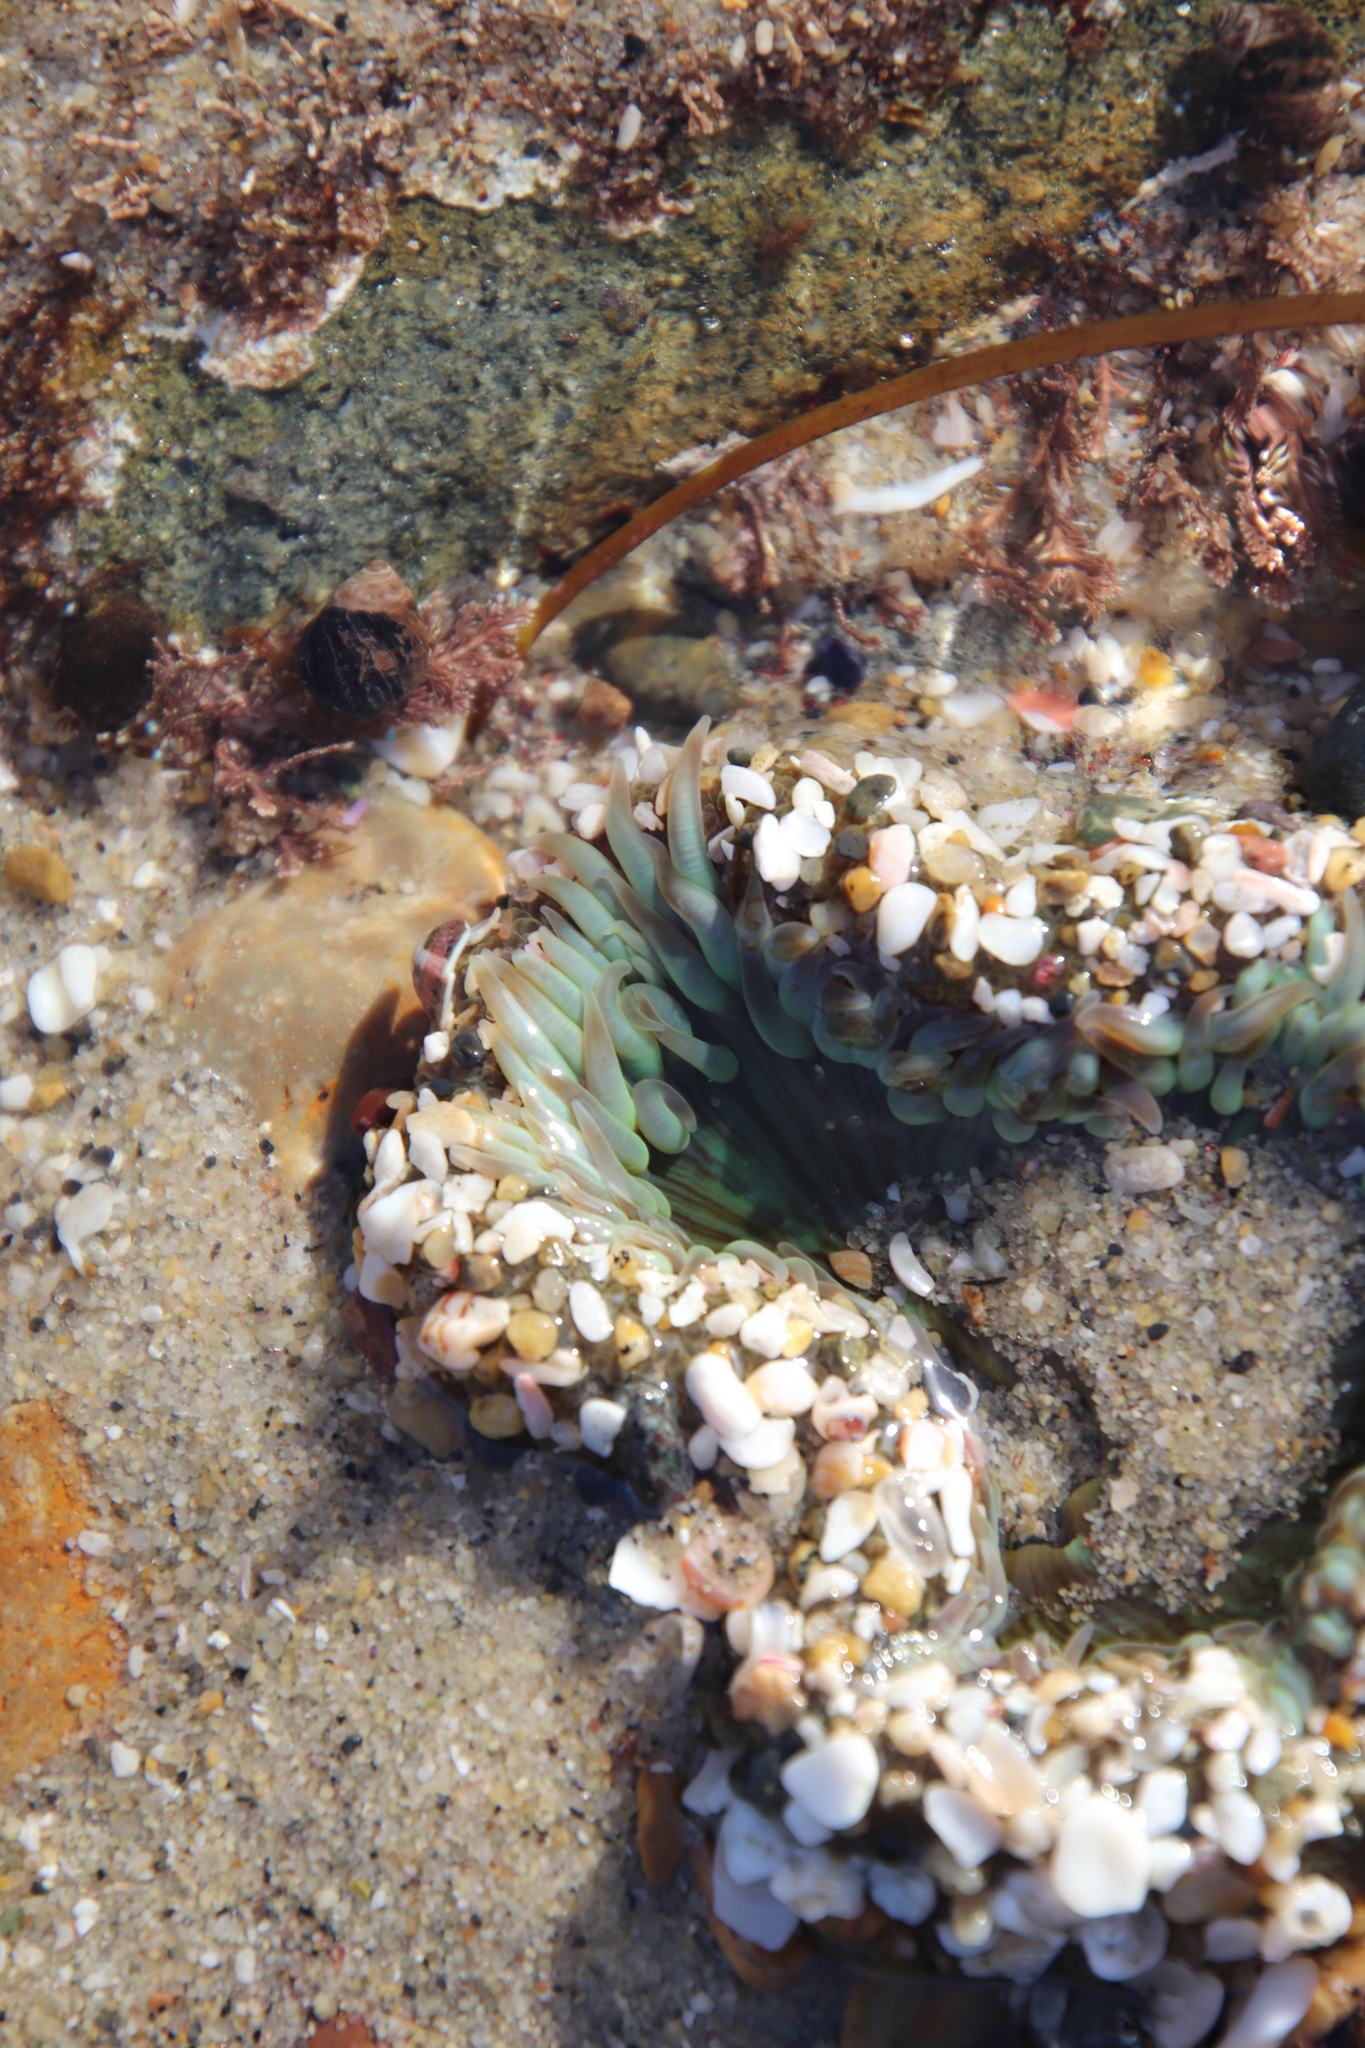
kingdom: Animalia
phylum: Cnidaria
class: Anthozoa
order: Actiniaria
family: Actiniidae
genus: Anthopleura
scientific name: Anthopleura sola
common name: Sun anemone
